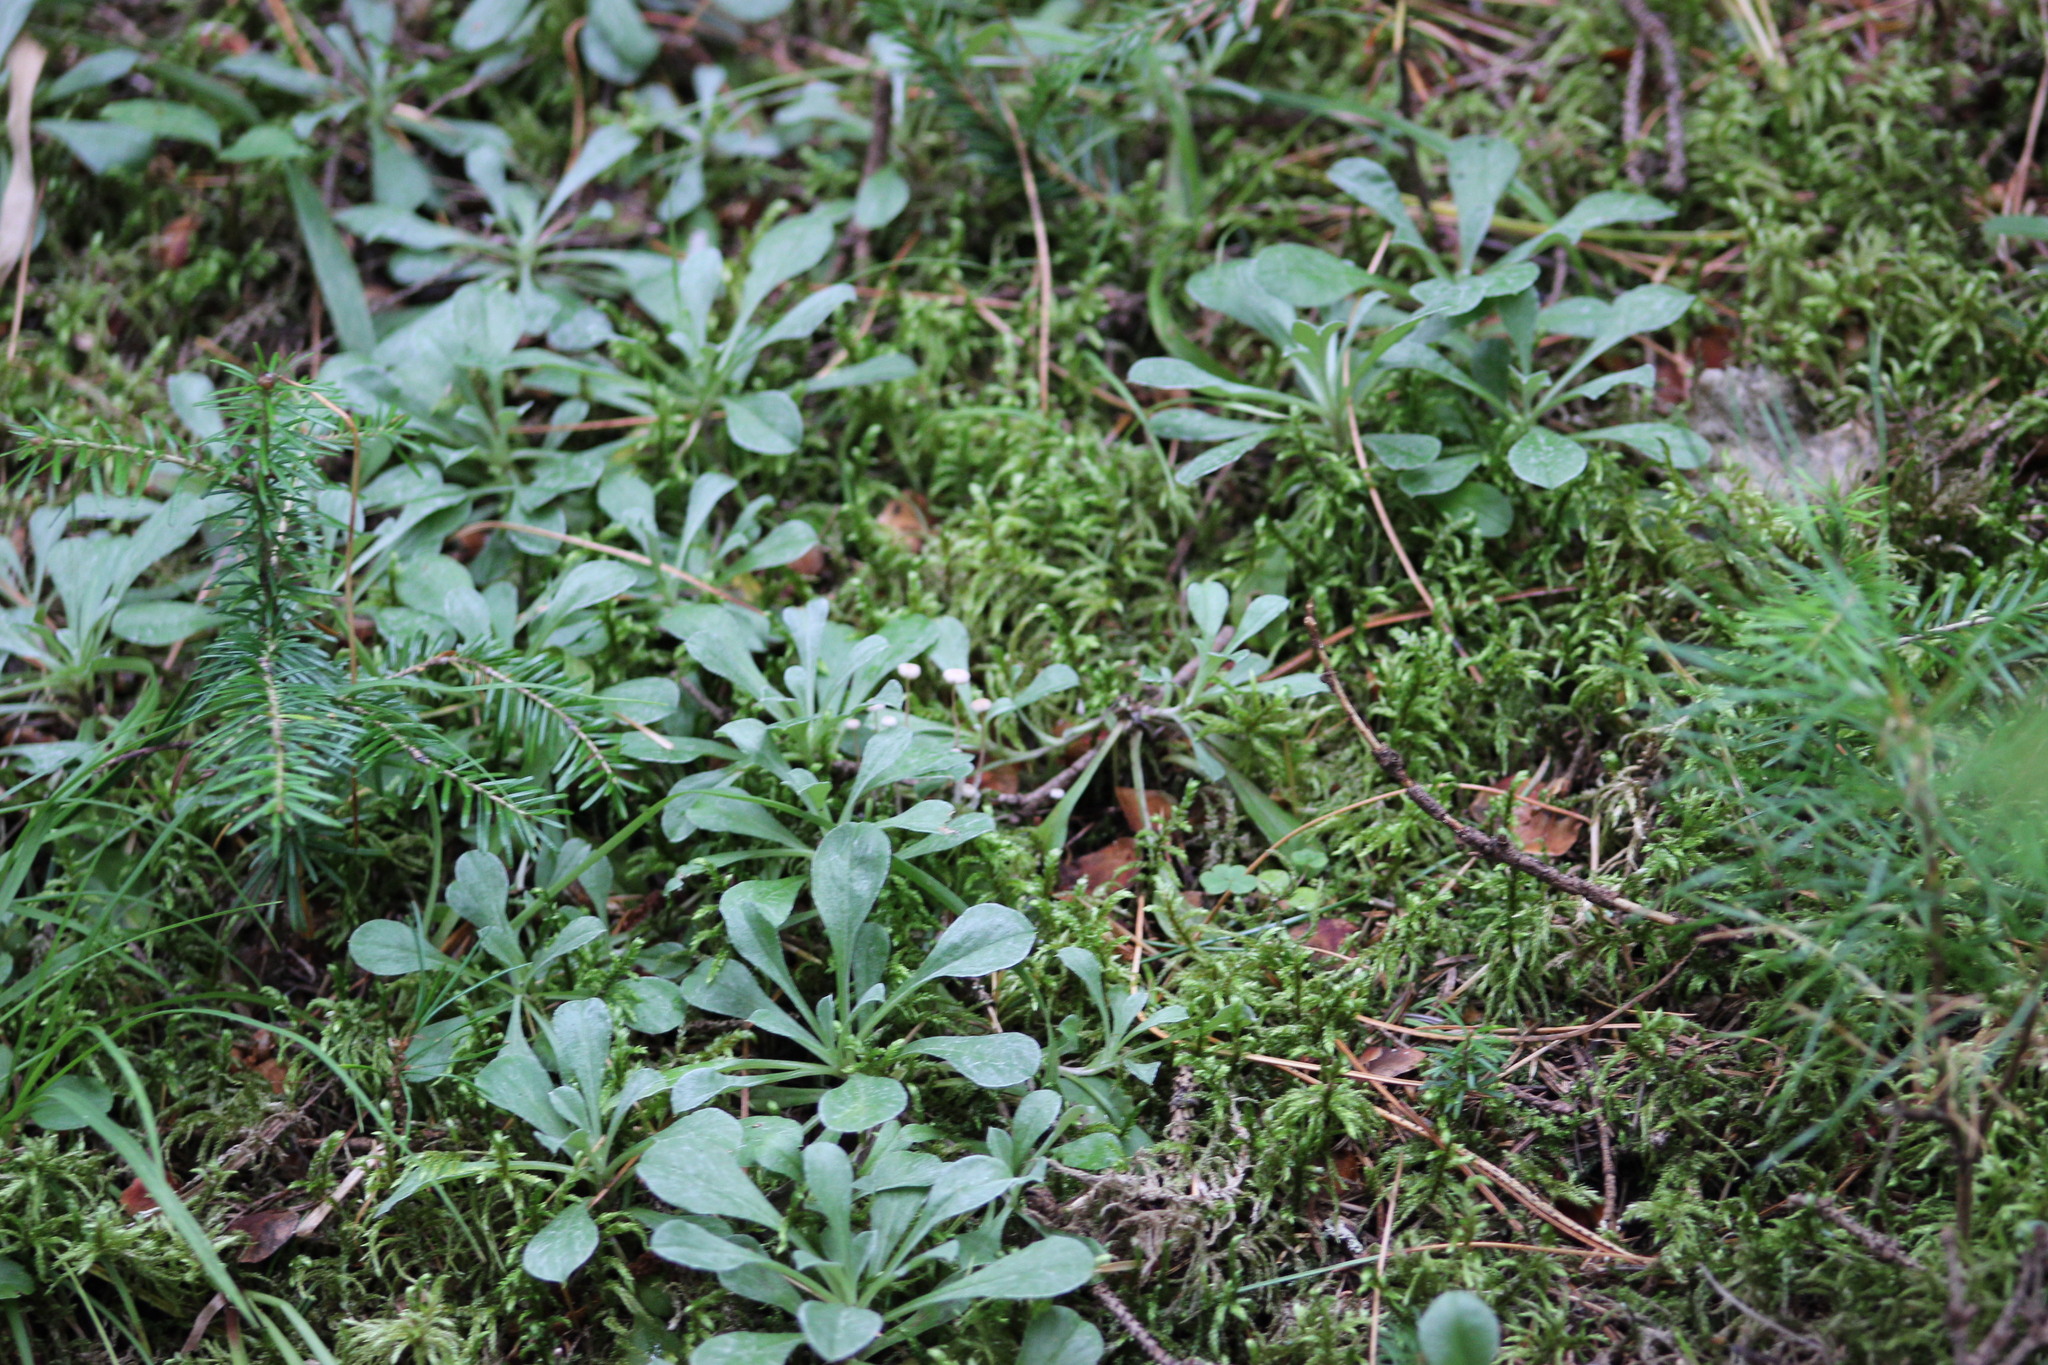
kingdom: Plantae
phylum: Tracheophyta
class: Magnoliopsida
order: Asterales
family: Asteraceae
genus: Antennaria
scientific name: Antennaria dioica
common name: Mountain everlasting
